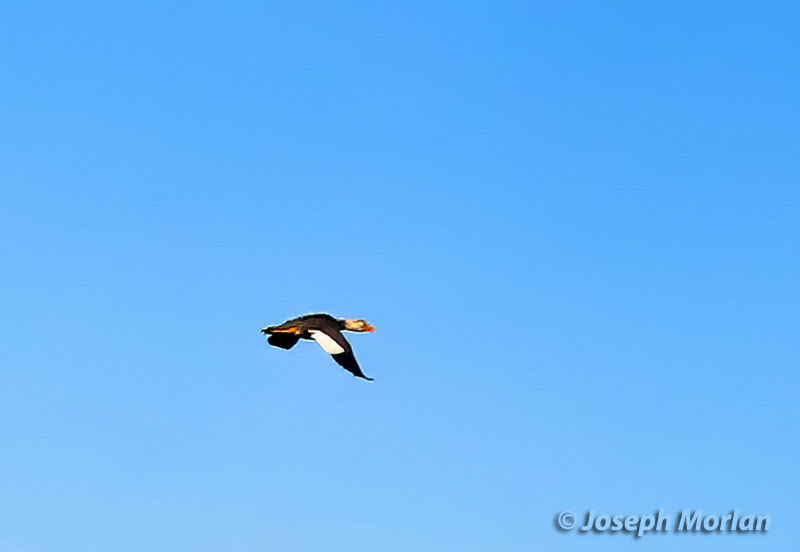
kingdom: Animalia
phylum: Chordata
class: Aves
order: Anseriformes
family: Anatidae
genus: Tachyeres
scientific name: Tachyeres patachonicus
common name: Flying steamer duck
